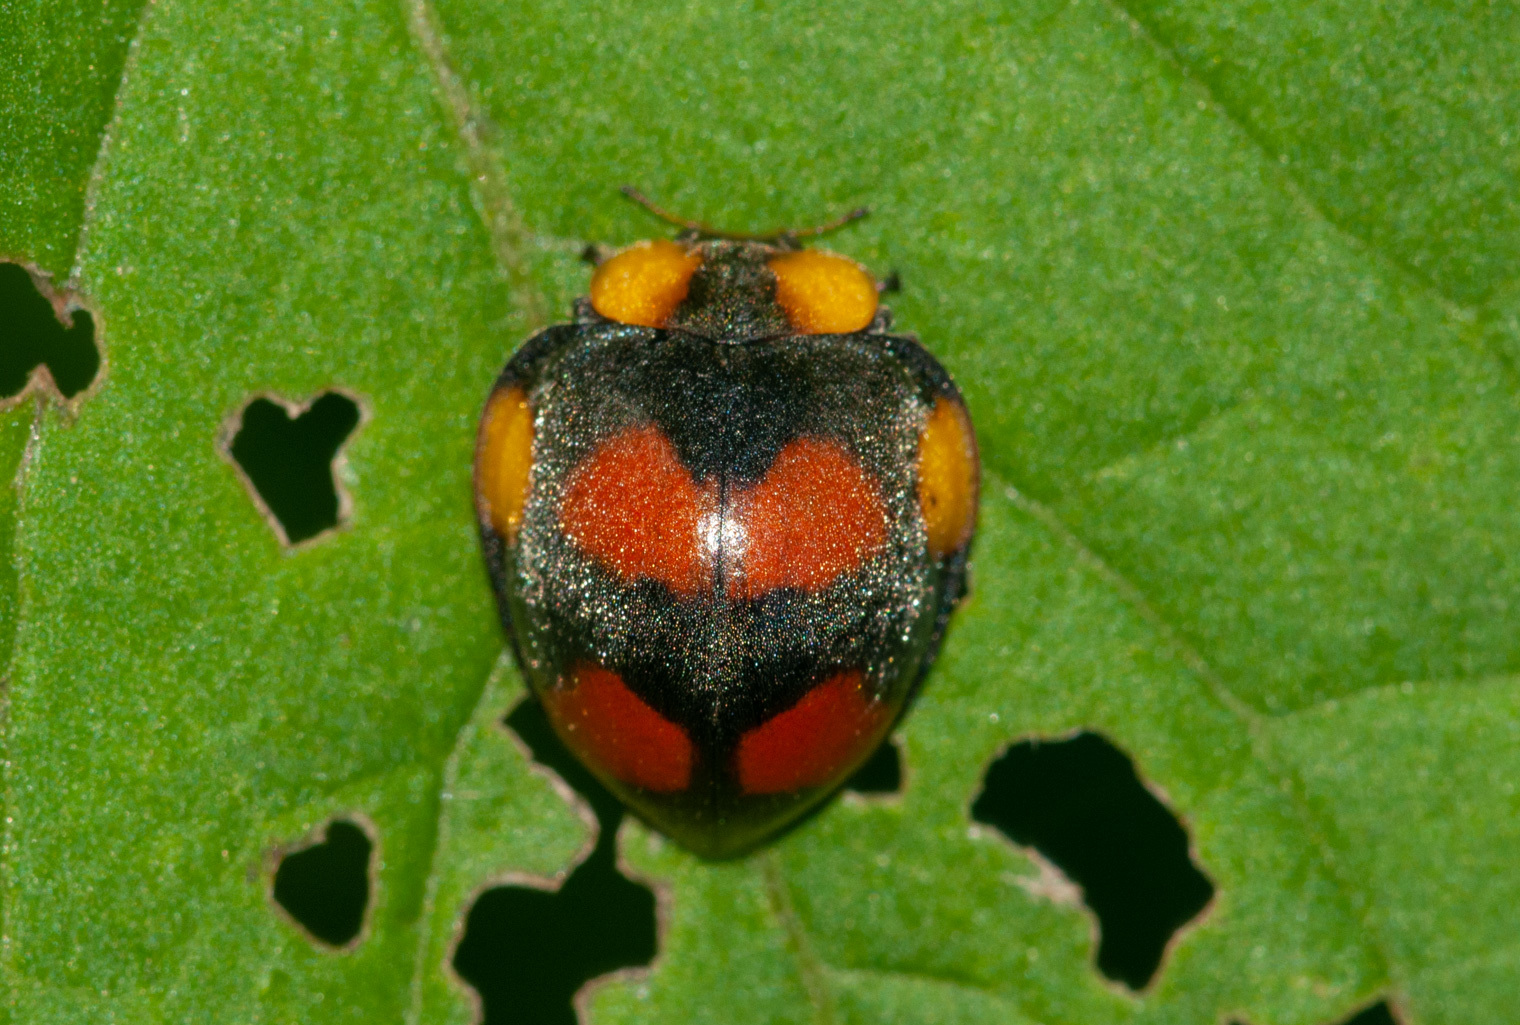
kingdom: Animalia
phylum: Arthropoda
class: Insecta
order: Coleoptera
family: Coccinellidae
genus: Papuaepilachna
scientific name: Papuaepilachna
